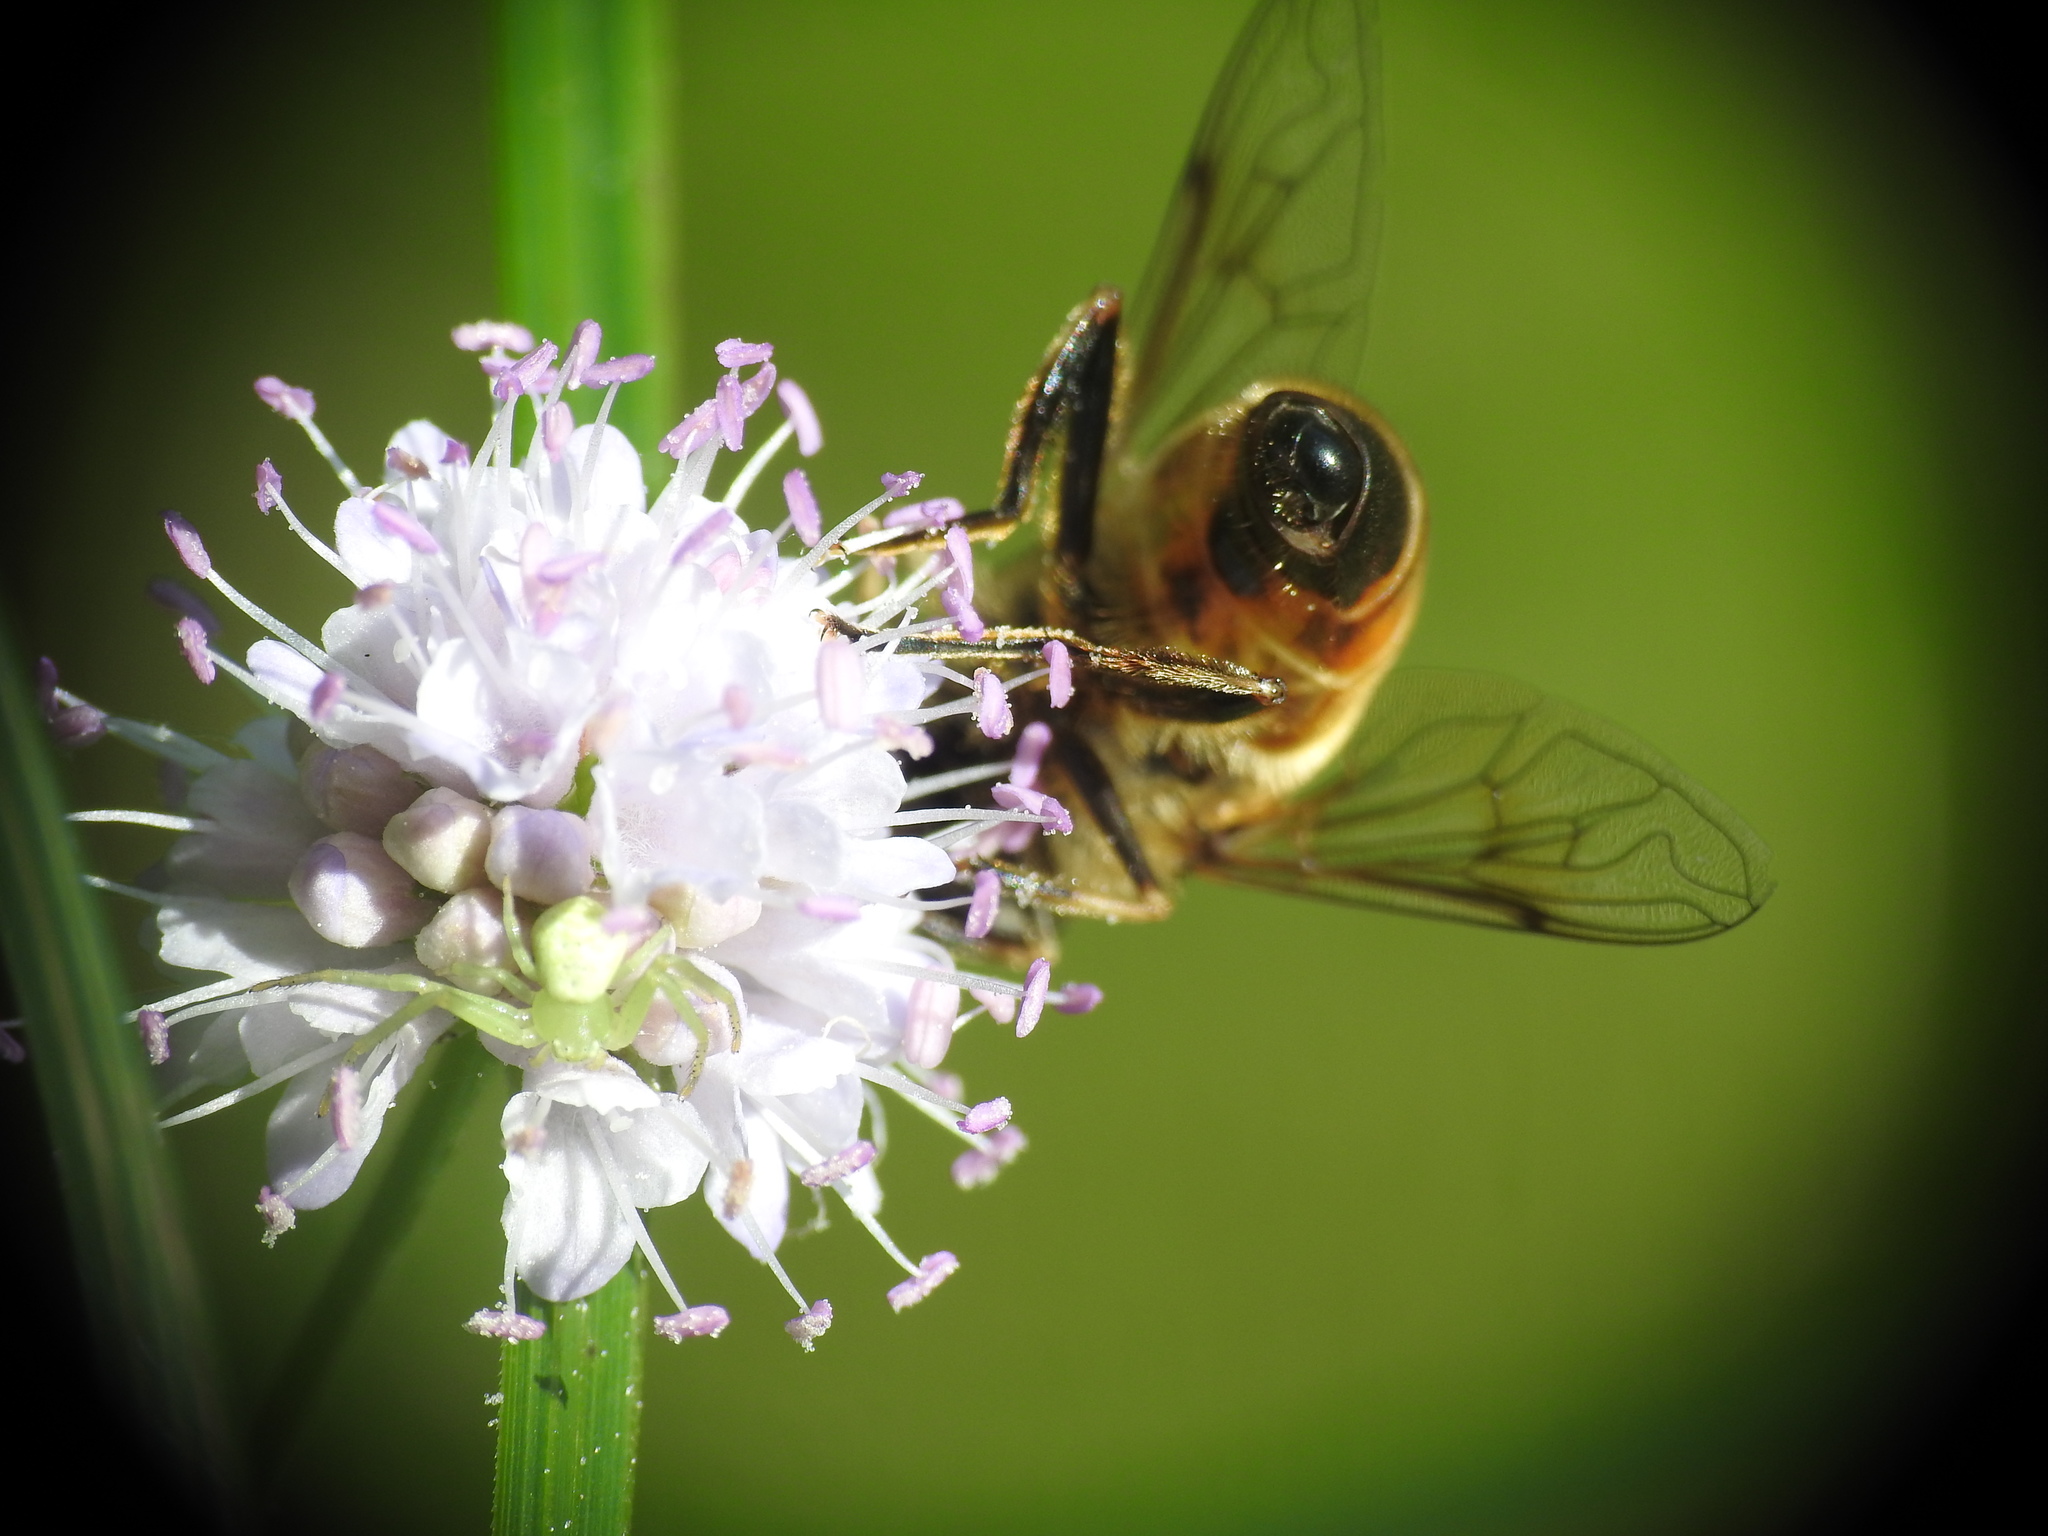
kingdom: Animalia
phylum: Arthropoda
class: Insecta
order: Diptera
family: Syrphidae
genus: Eristalis
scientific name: Eristalis tenax
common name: Drone fly
